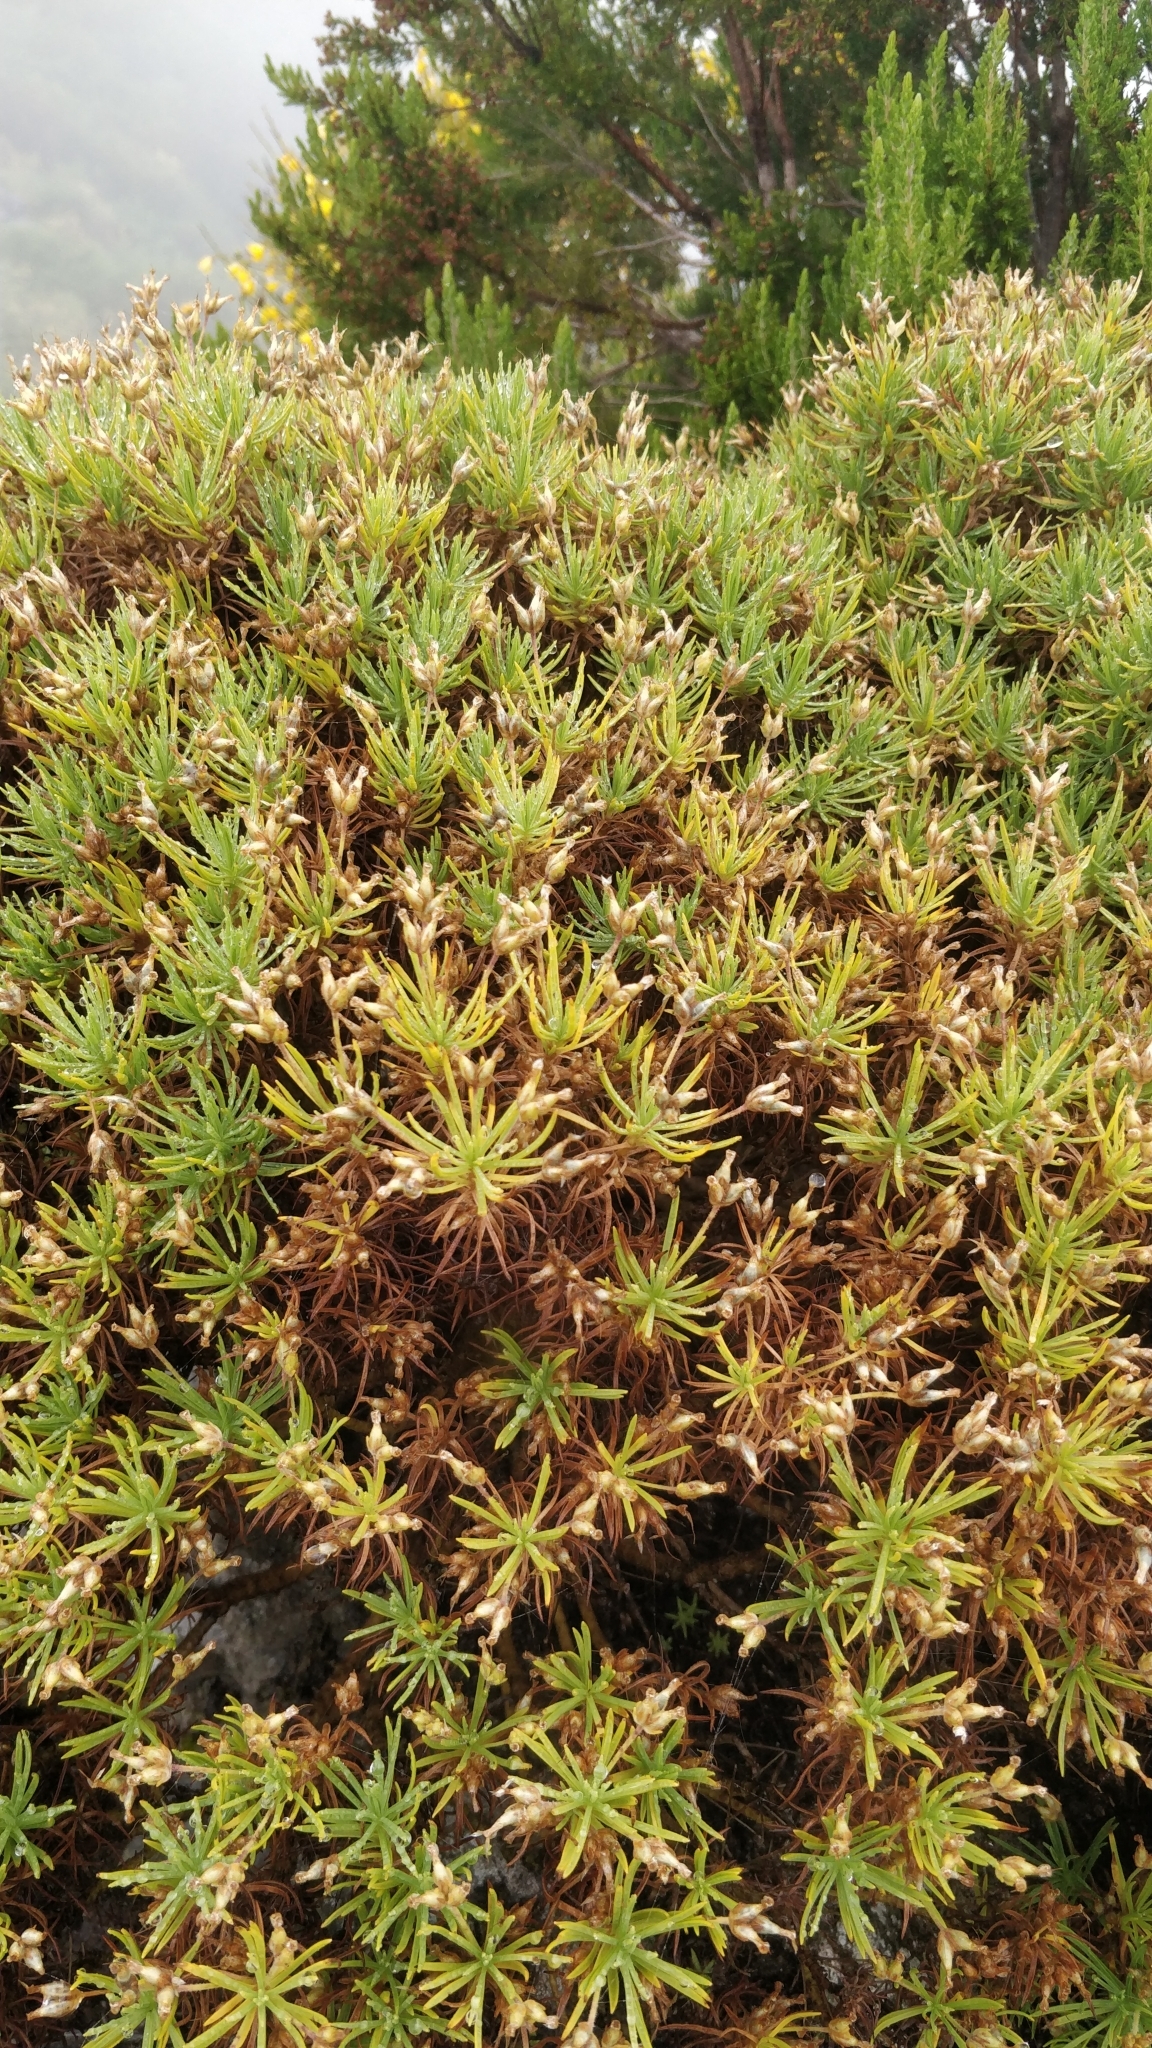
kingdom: Plantae
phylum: Tracheophyta
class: Magnoliopsida
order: Lamiales
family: Plantaginaceae
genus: Plantago
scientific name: Plantago arborescens
